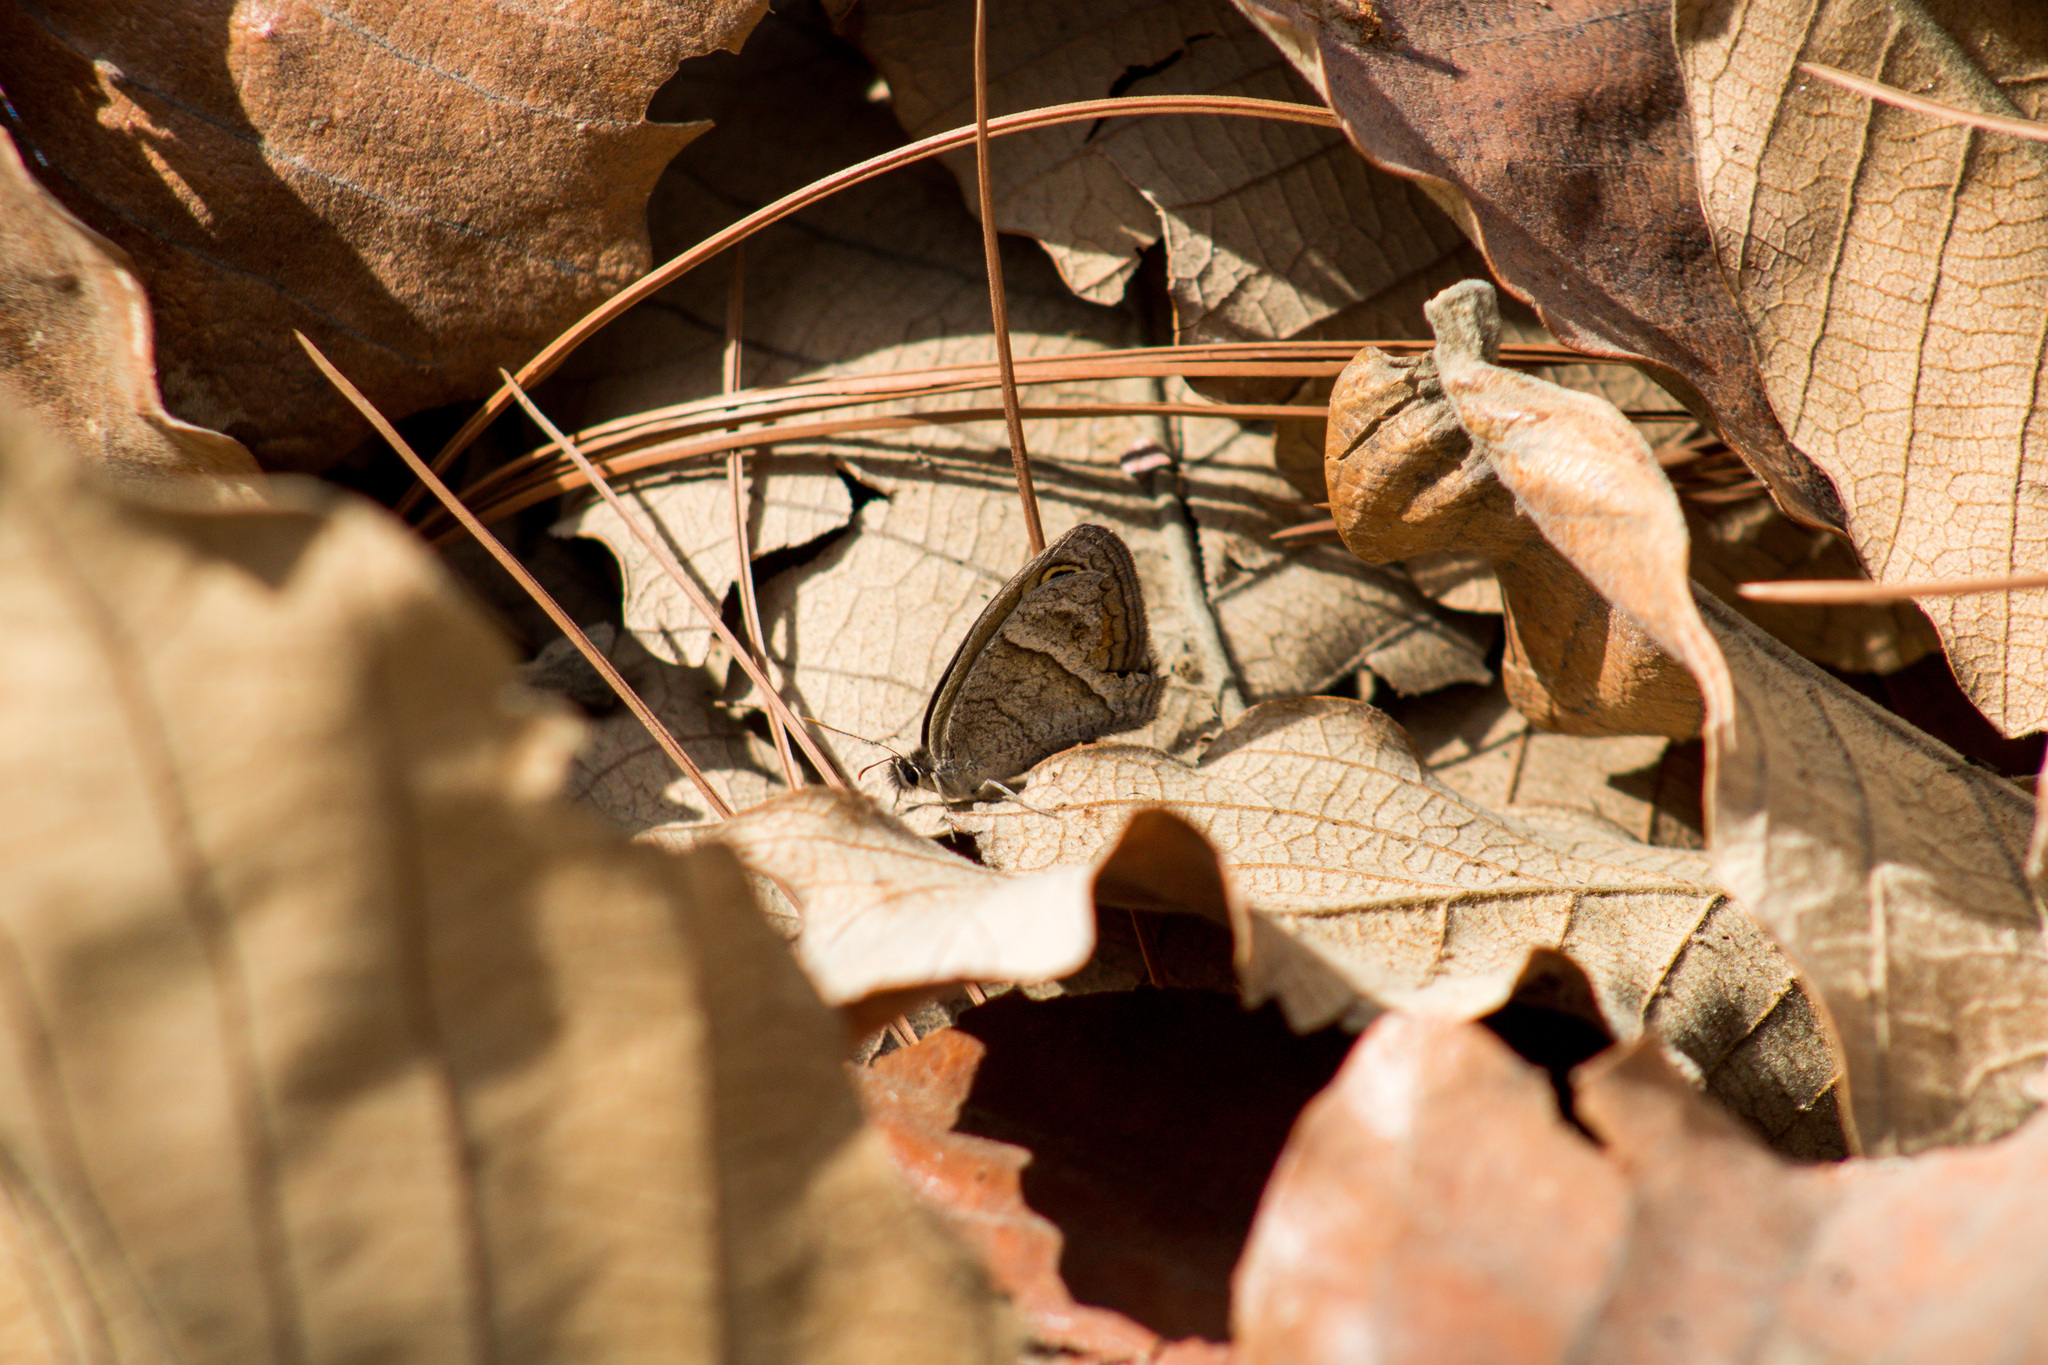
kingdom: Animalia
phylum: Arthropoda
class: Insecta
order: Lepidoptera
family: Nymphalidae
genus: Euptychia
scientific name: Euptychia
